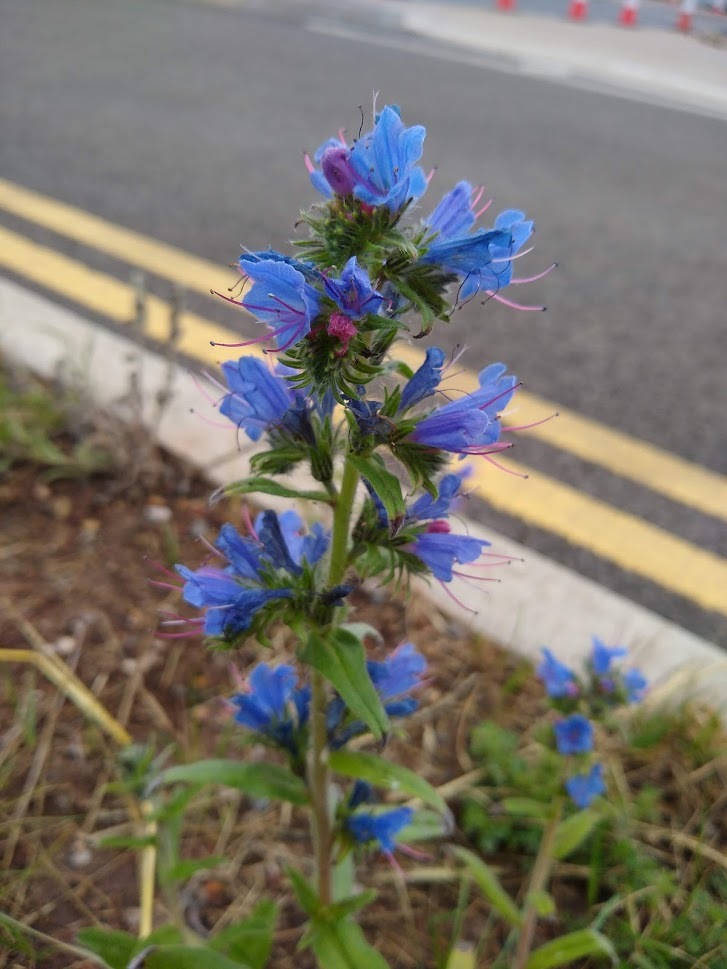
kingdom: Plantae
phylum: Tracheophyta
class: Magnoliopsida
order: Boraginales
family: Boraginaceae
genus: Echium
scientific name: Echium vulgare
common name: Common viper's bugloss
